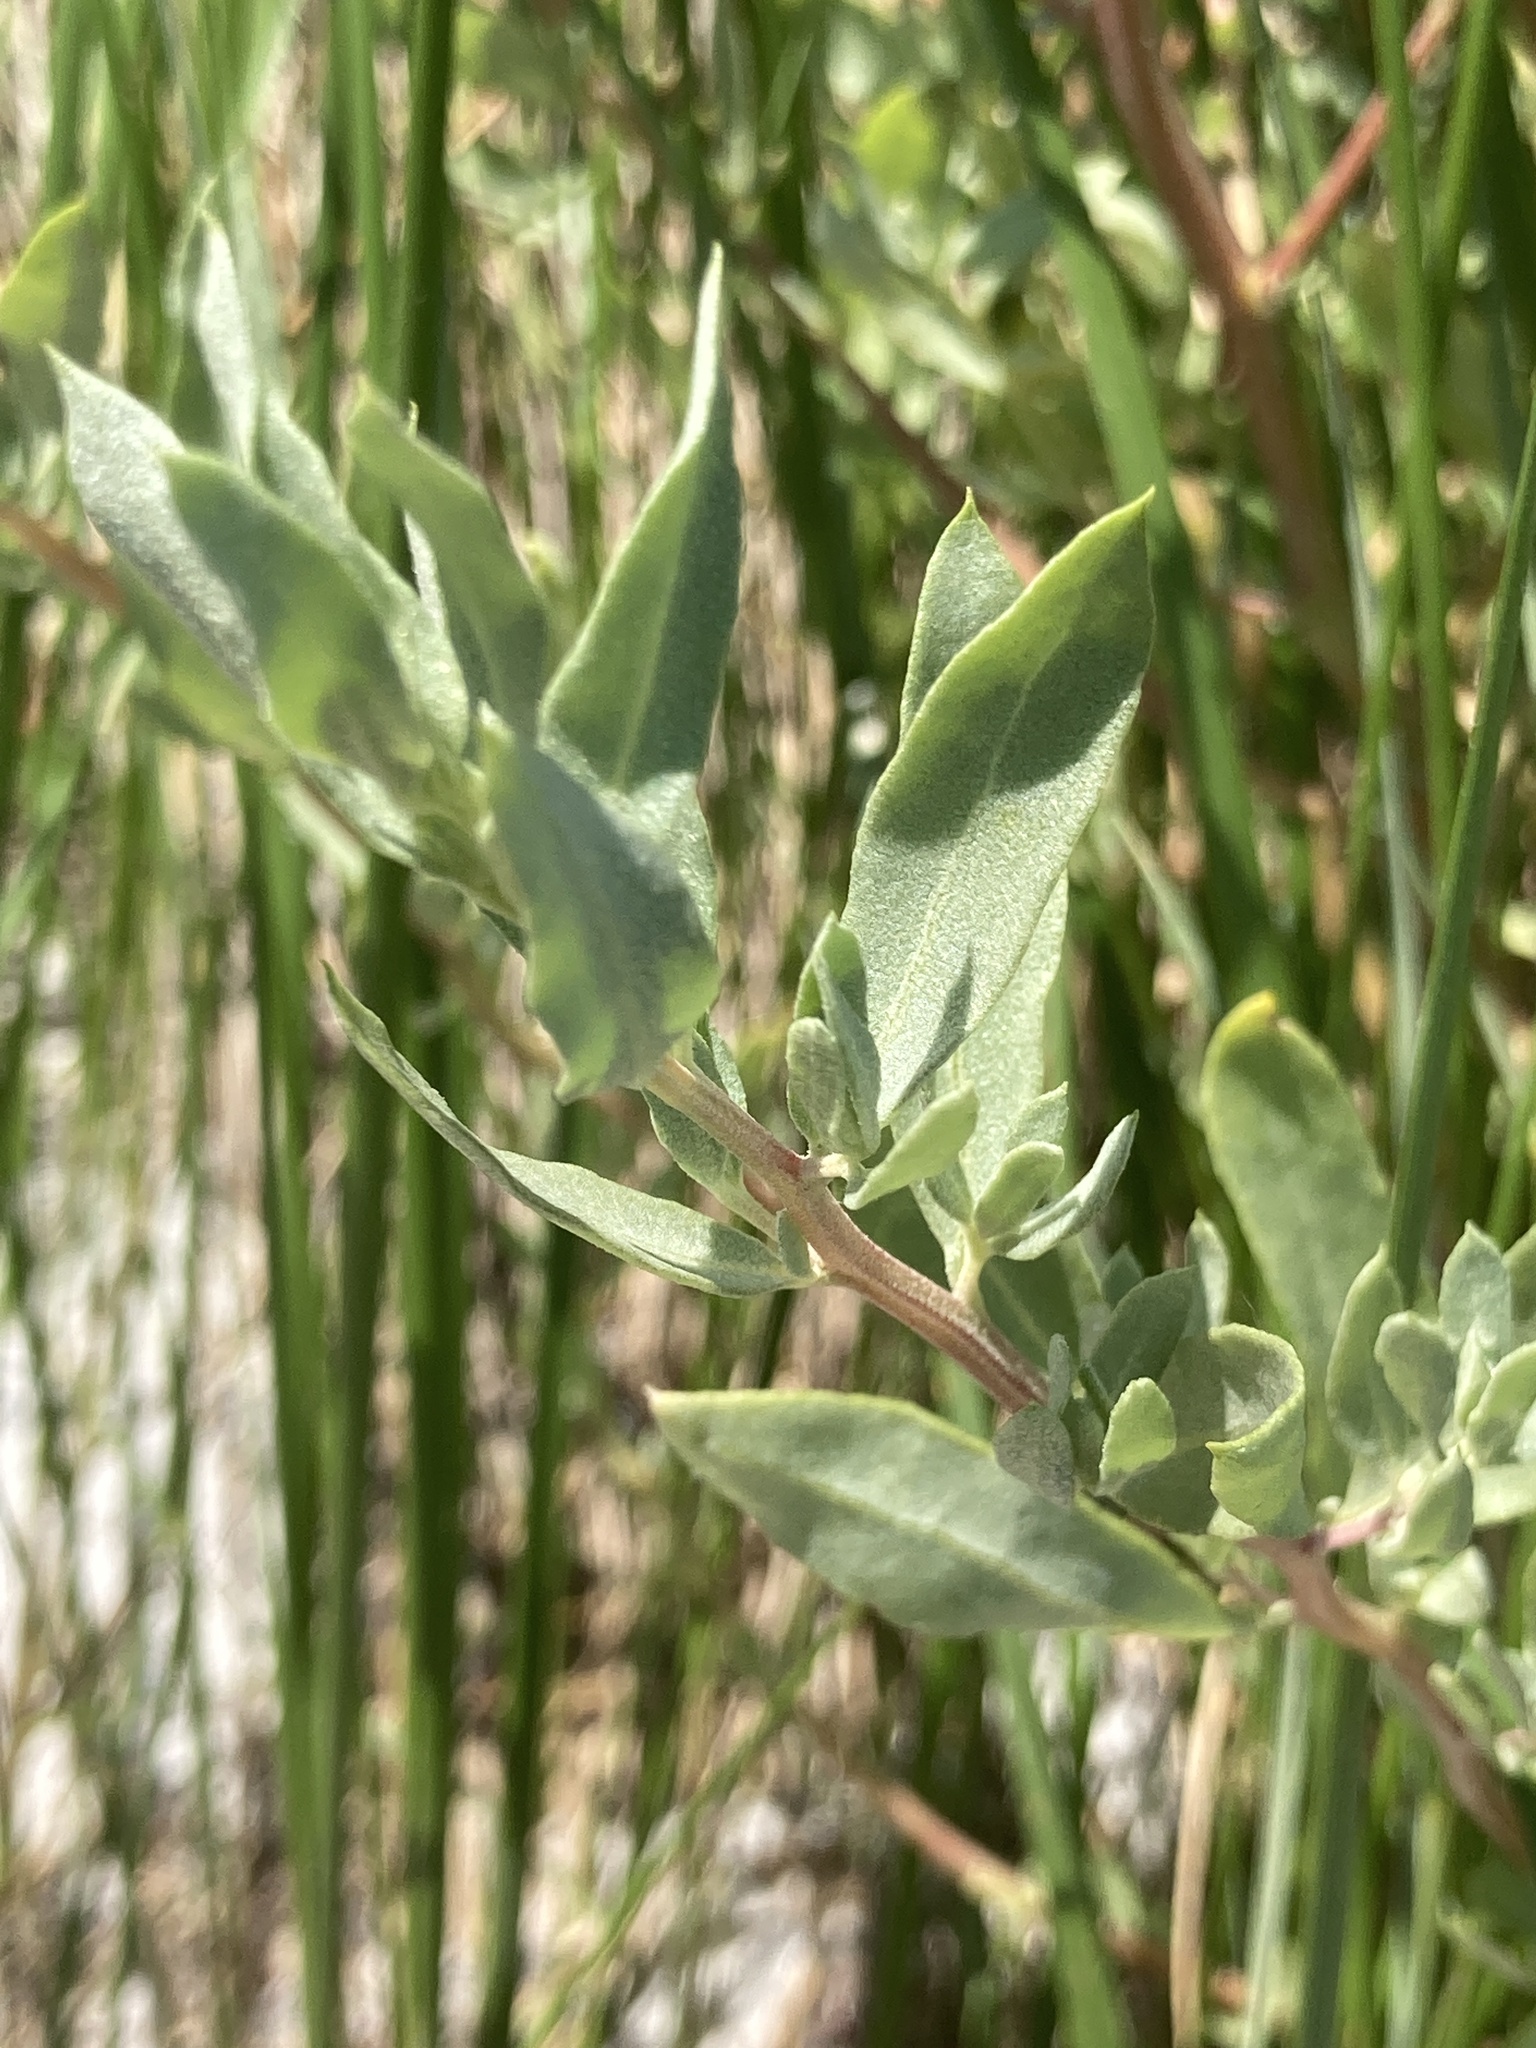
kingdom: Plantae
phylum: Tracheophyta
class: Magnoliopsida
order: Caryophyllales
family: Amaranthaceae
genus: Atriplex
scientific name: Atriplex cristata
